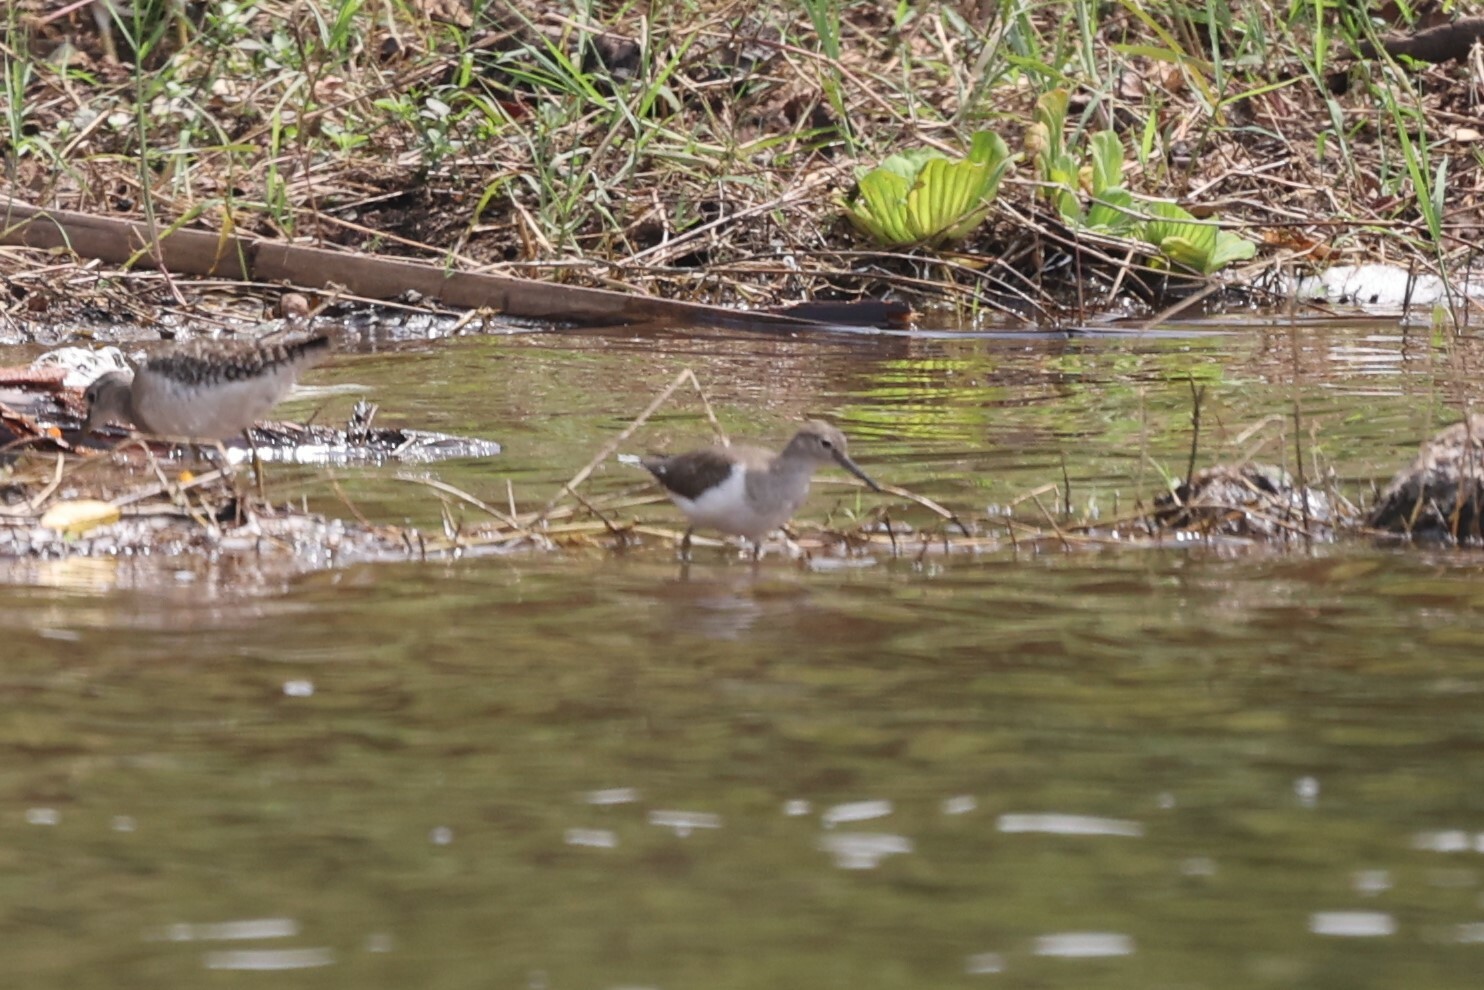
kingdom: Animalia
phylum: Chordata
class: Aves
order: Charadriiformes
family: Scolopacidae
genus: Actitis
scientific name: Actitis hypoleucos
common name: Common sandpiper
